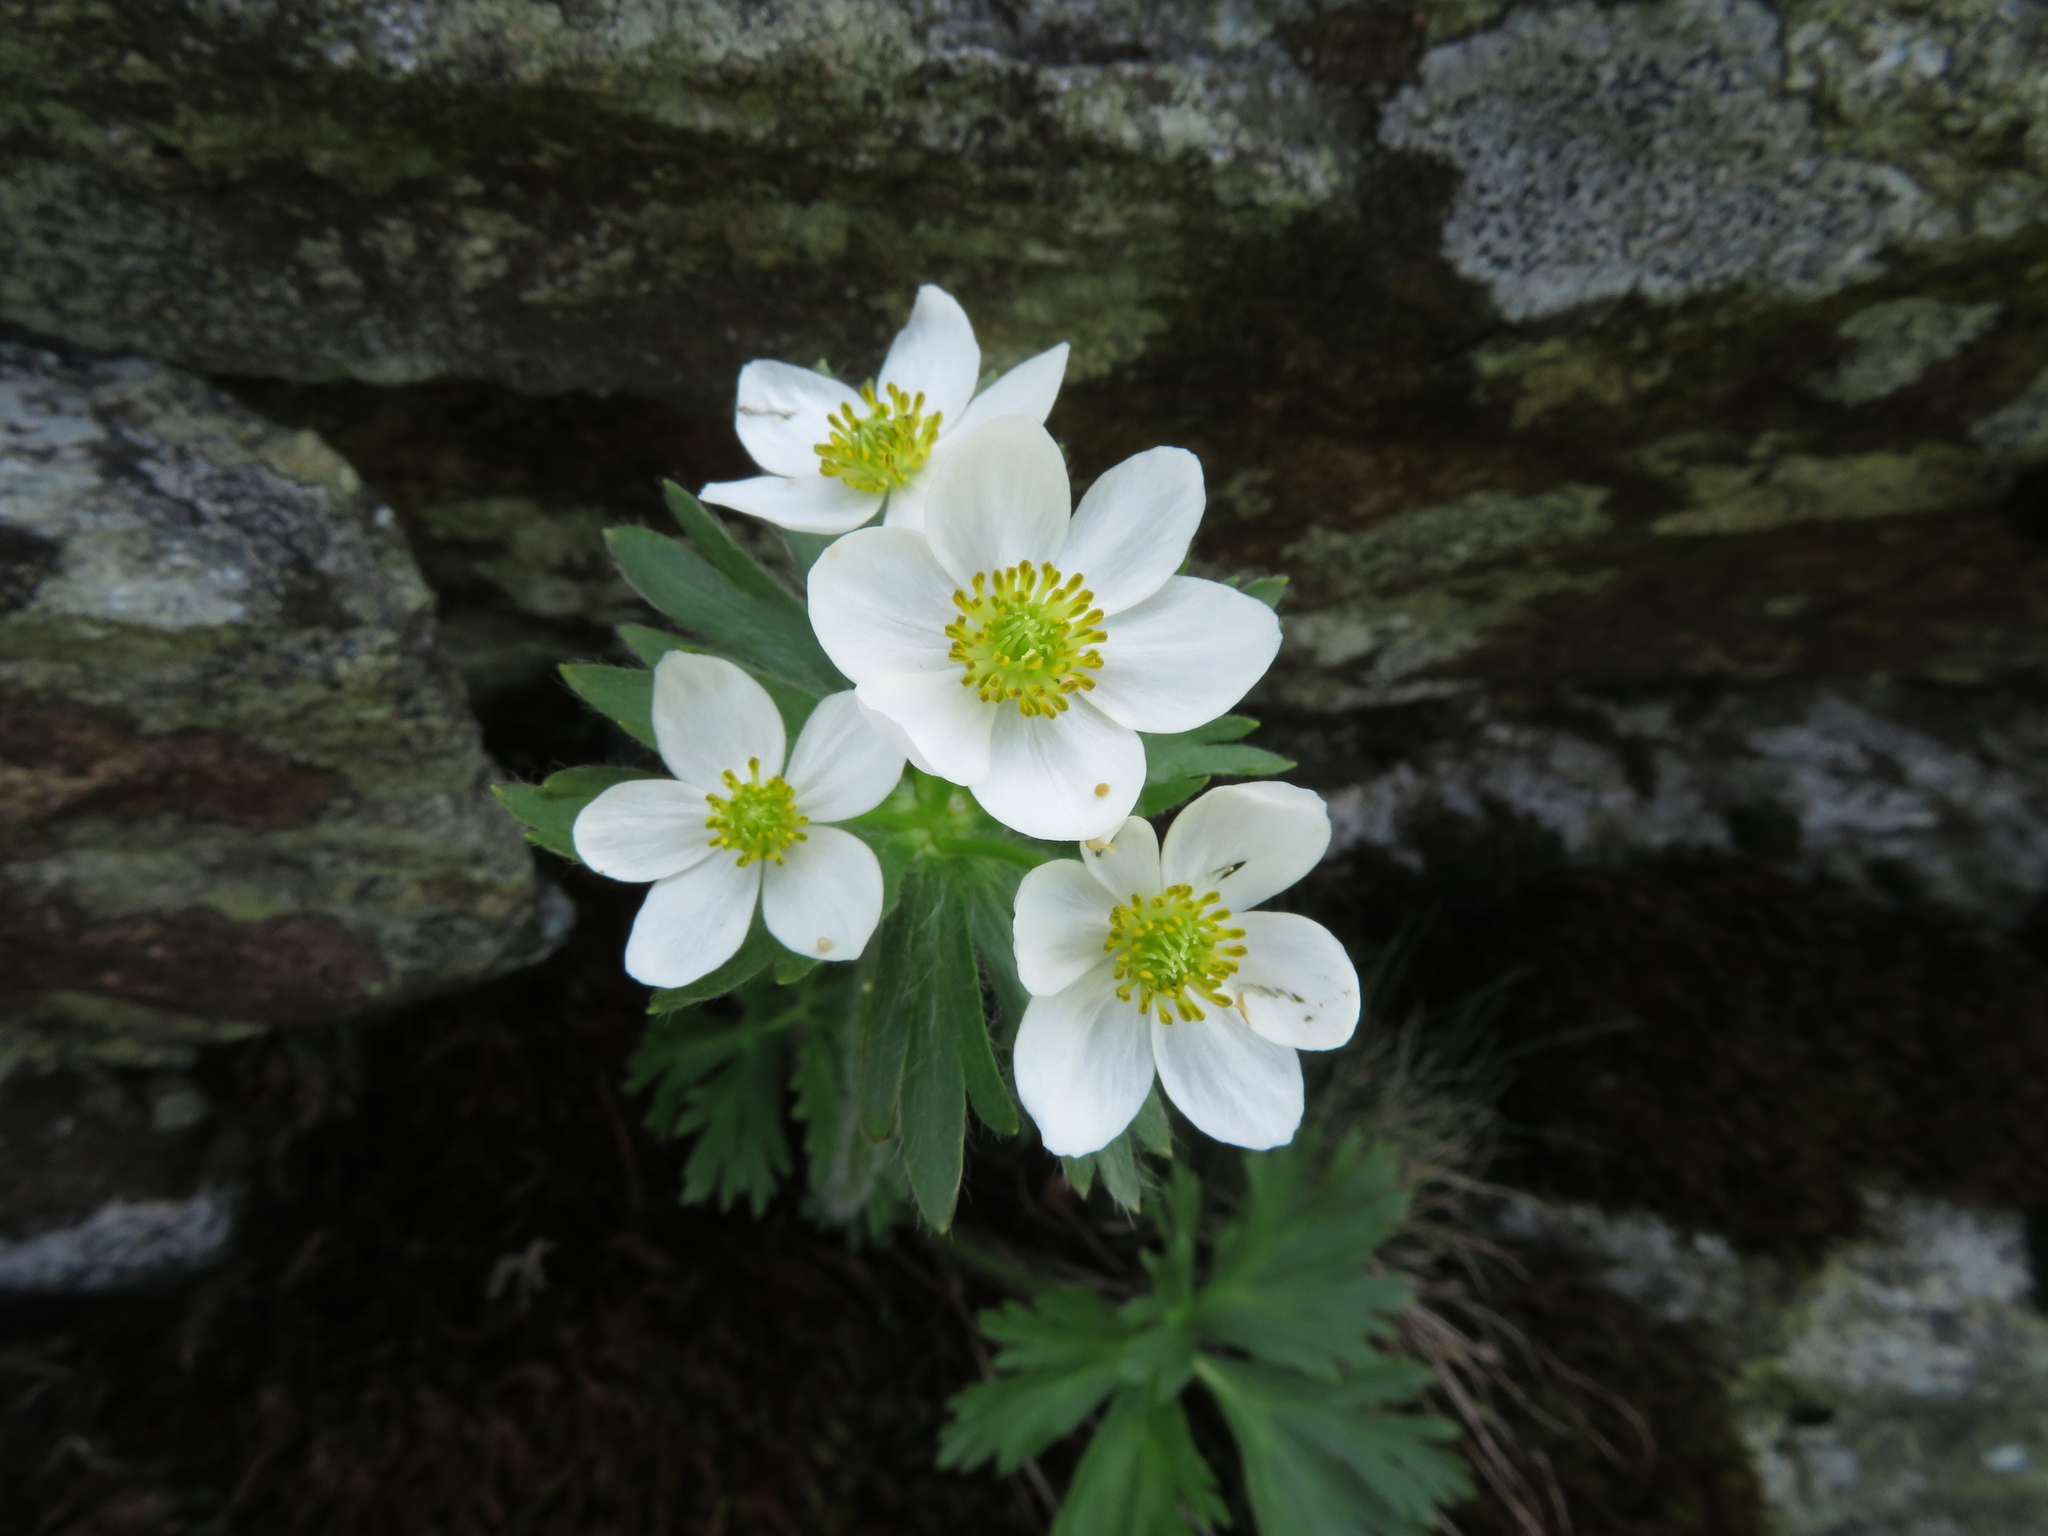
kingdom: Plantae
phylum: Tracheophyta
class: Magnoliopsida
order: Ranunculales
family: Ranunculaceae
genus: Anemonastrum
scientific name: Anemonastrum narcissiflorum
